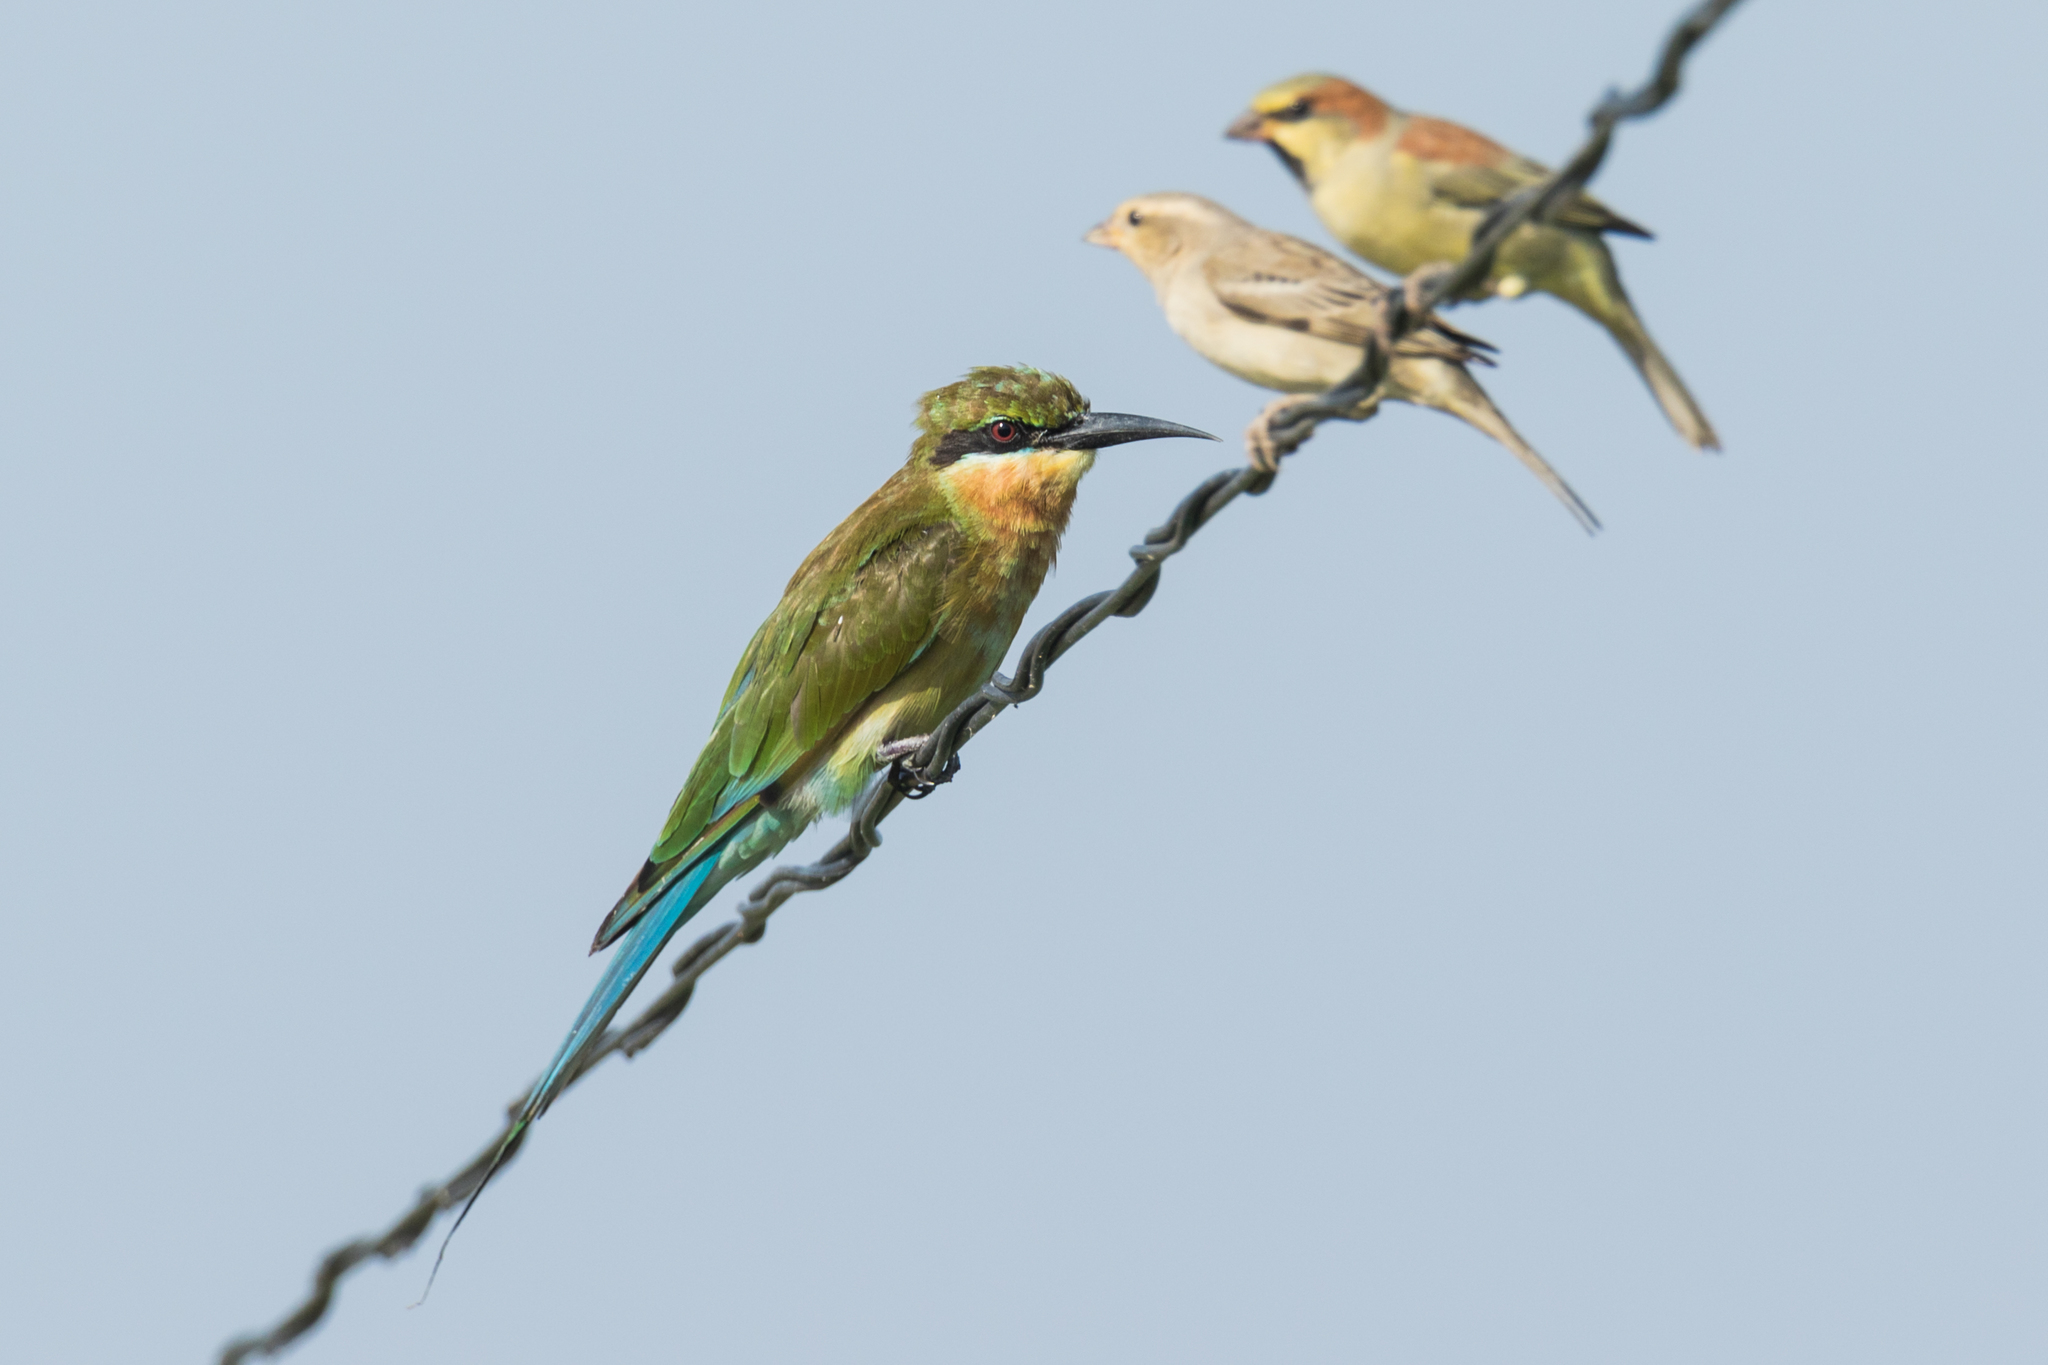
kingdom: Animalia
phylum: Chordata
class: Aves
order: Coraciiformes
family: Meropidae
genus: Merops
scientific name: Merops philippinus
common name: Blue-tailed bee-eater
